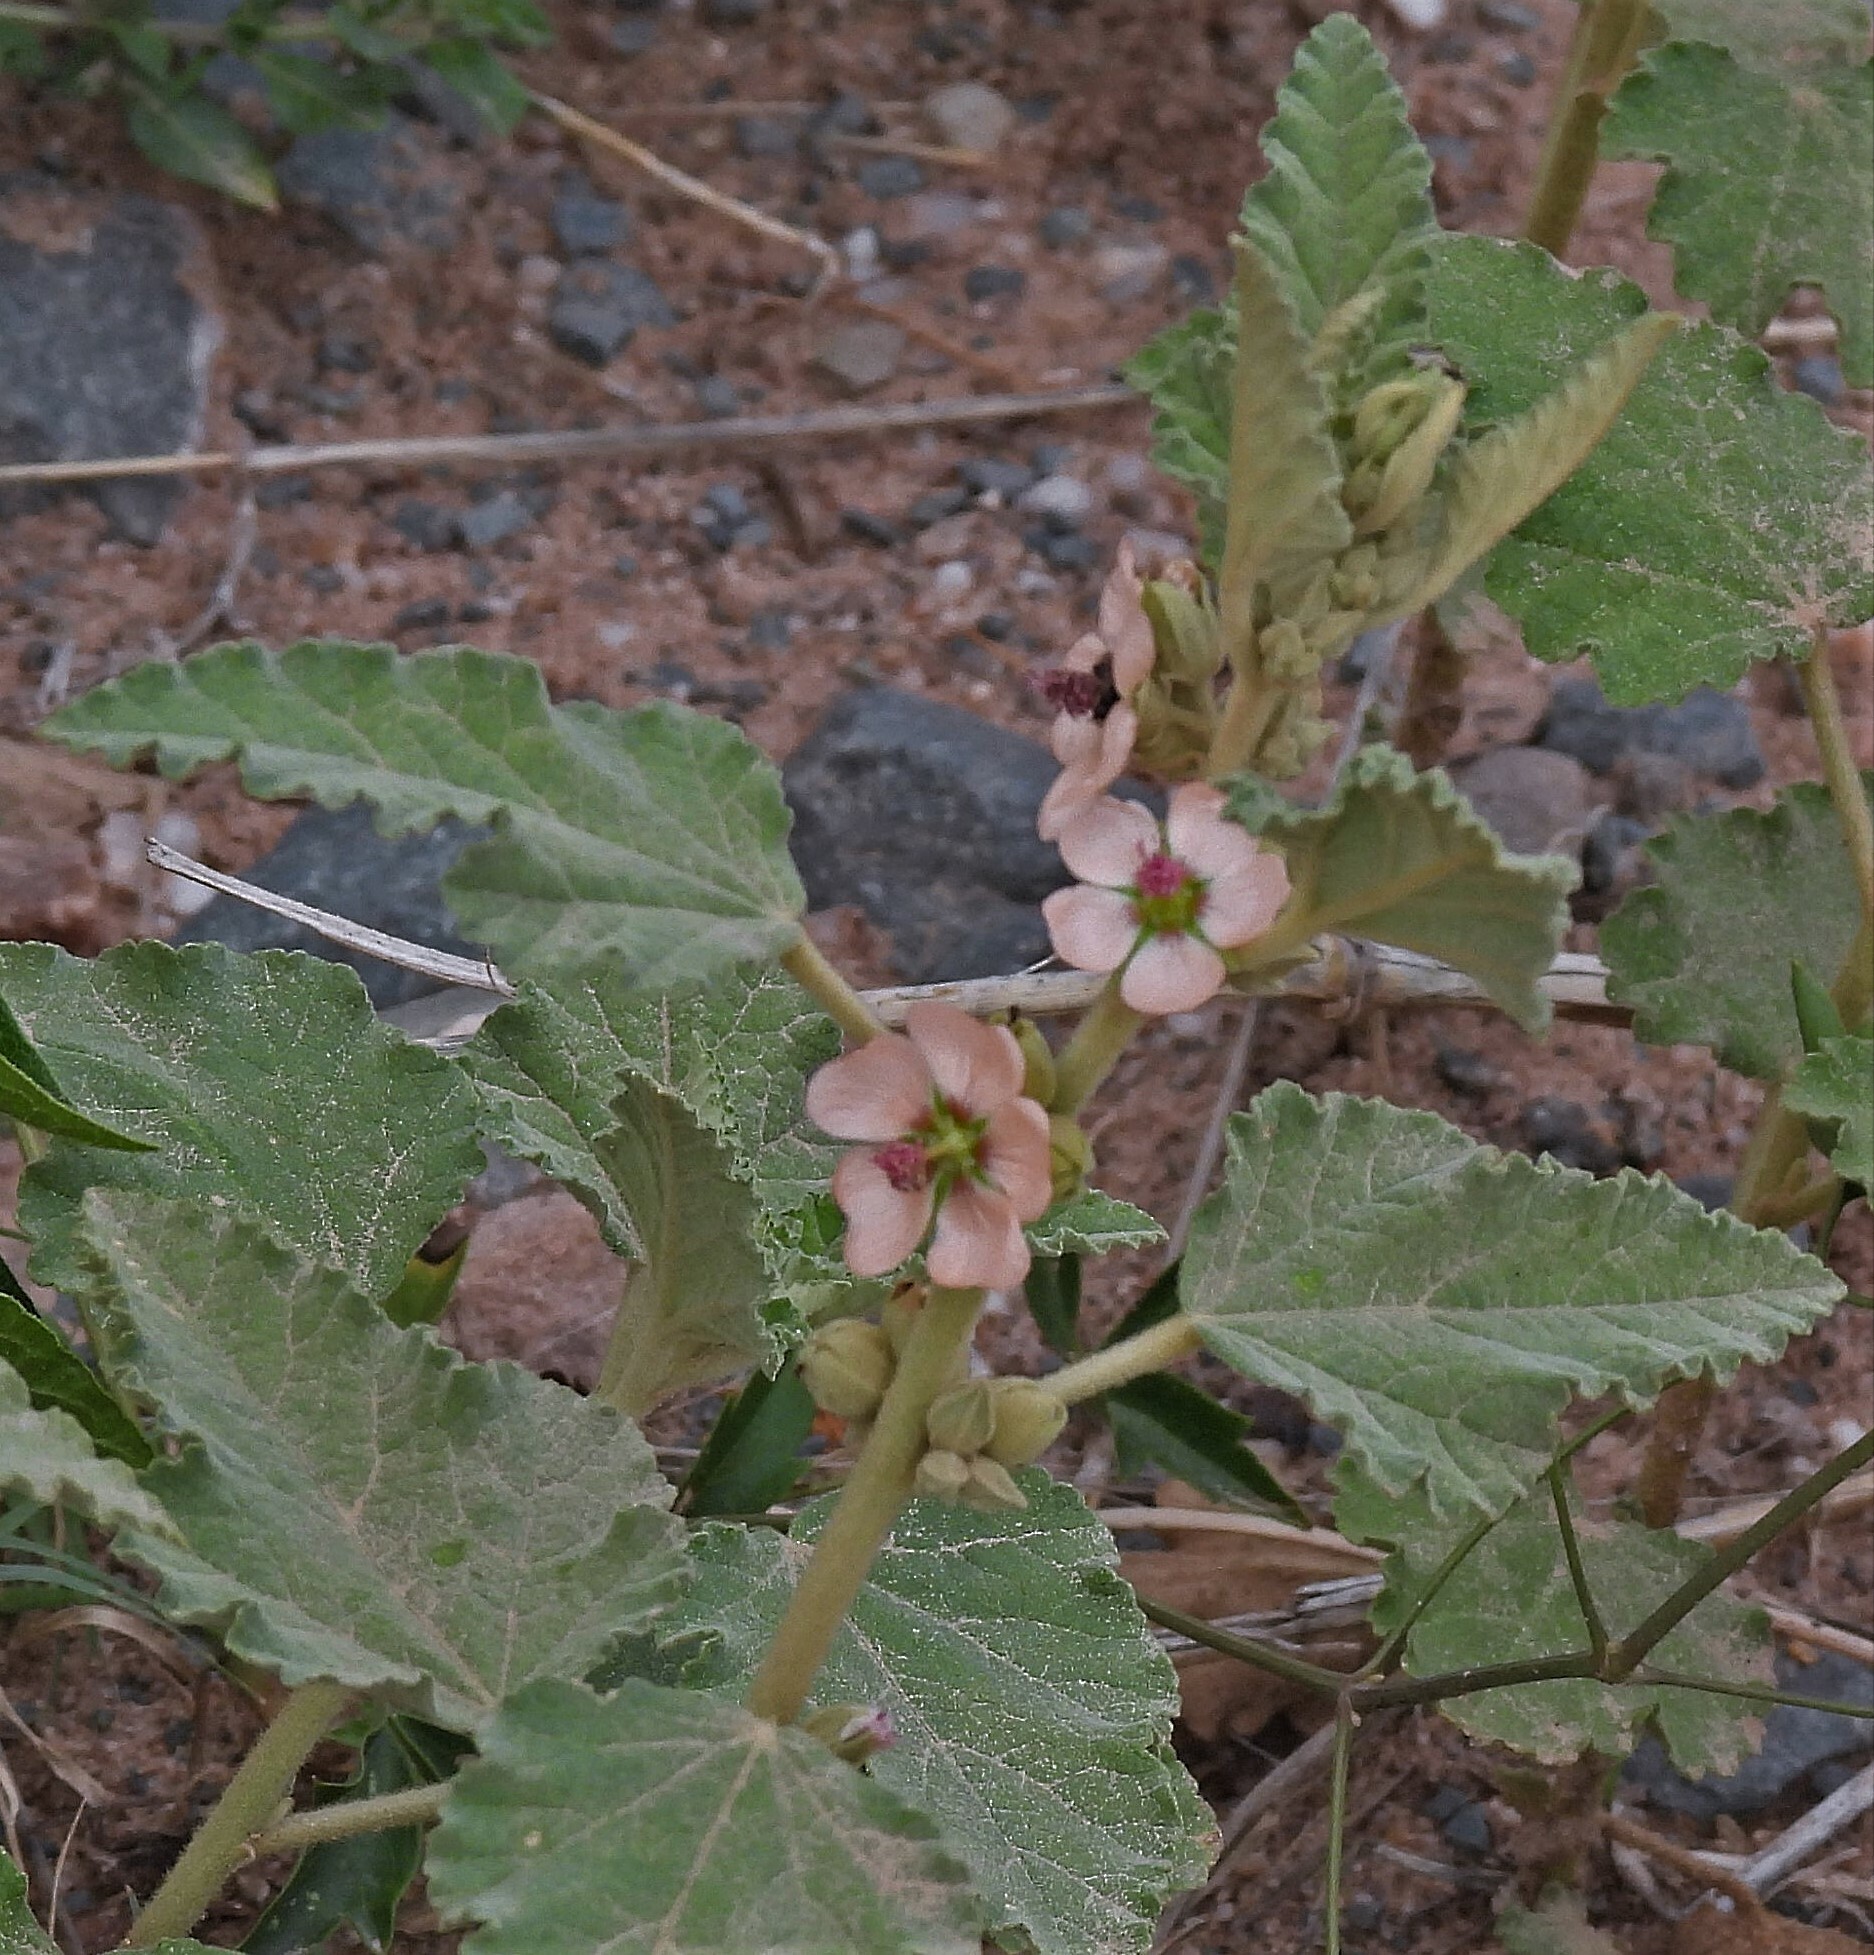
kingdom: Plantae
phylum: Tracheophyta
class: Magnoliopsida
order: Malvales
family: Malvaceae
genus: Sphaeralcea
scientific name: Sphaeralcea bonariensis
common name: Latin globemallow
